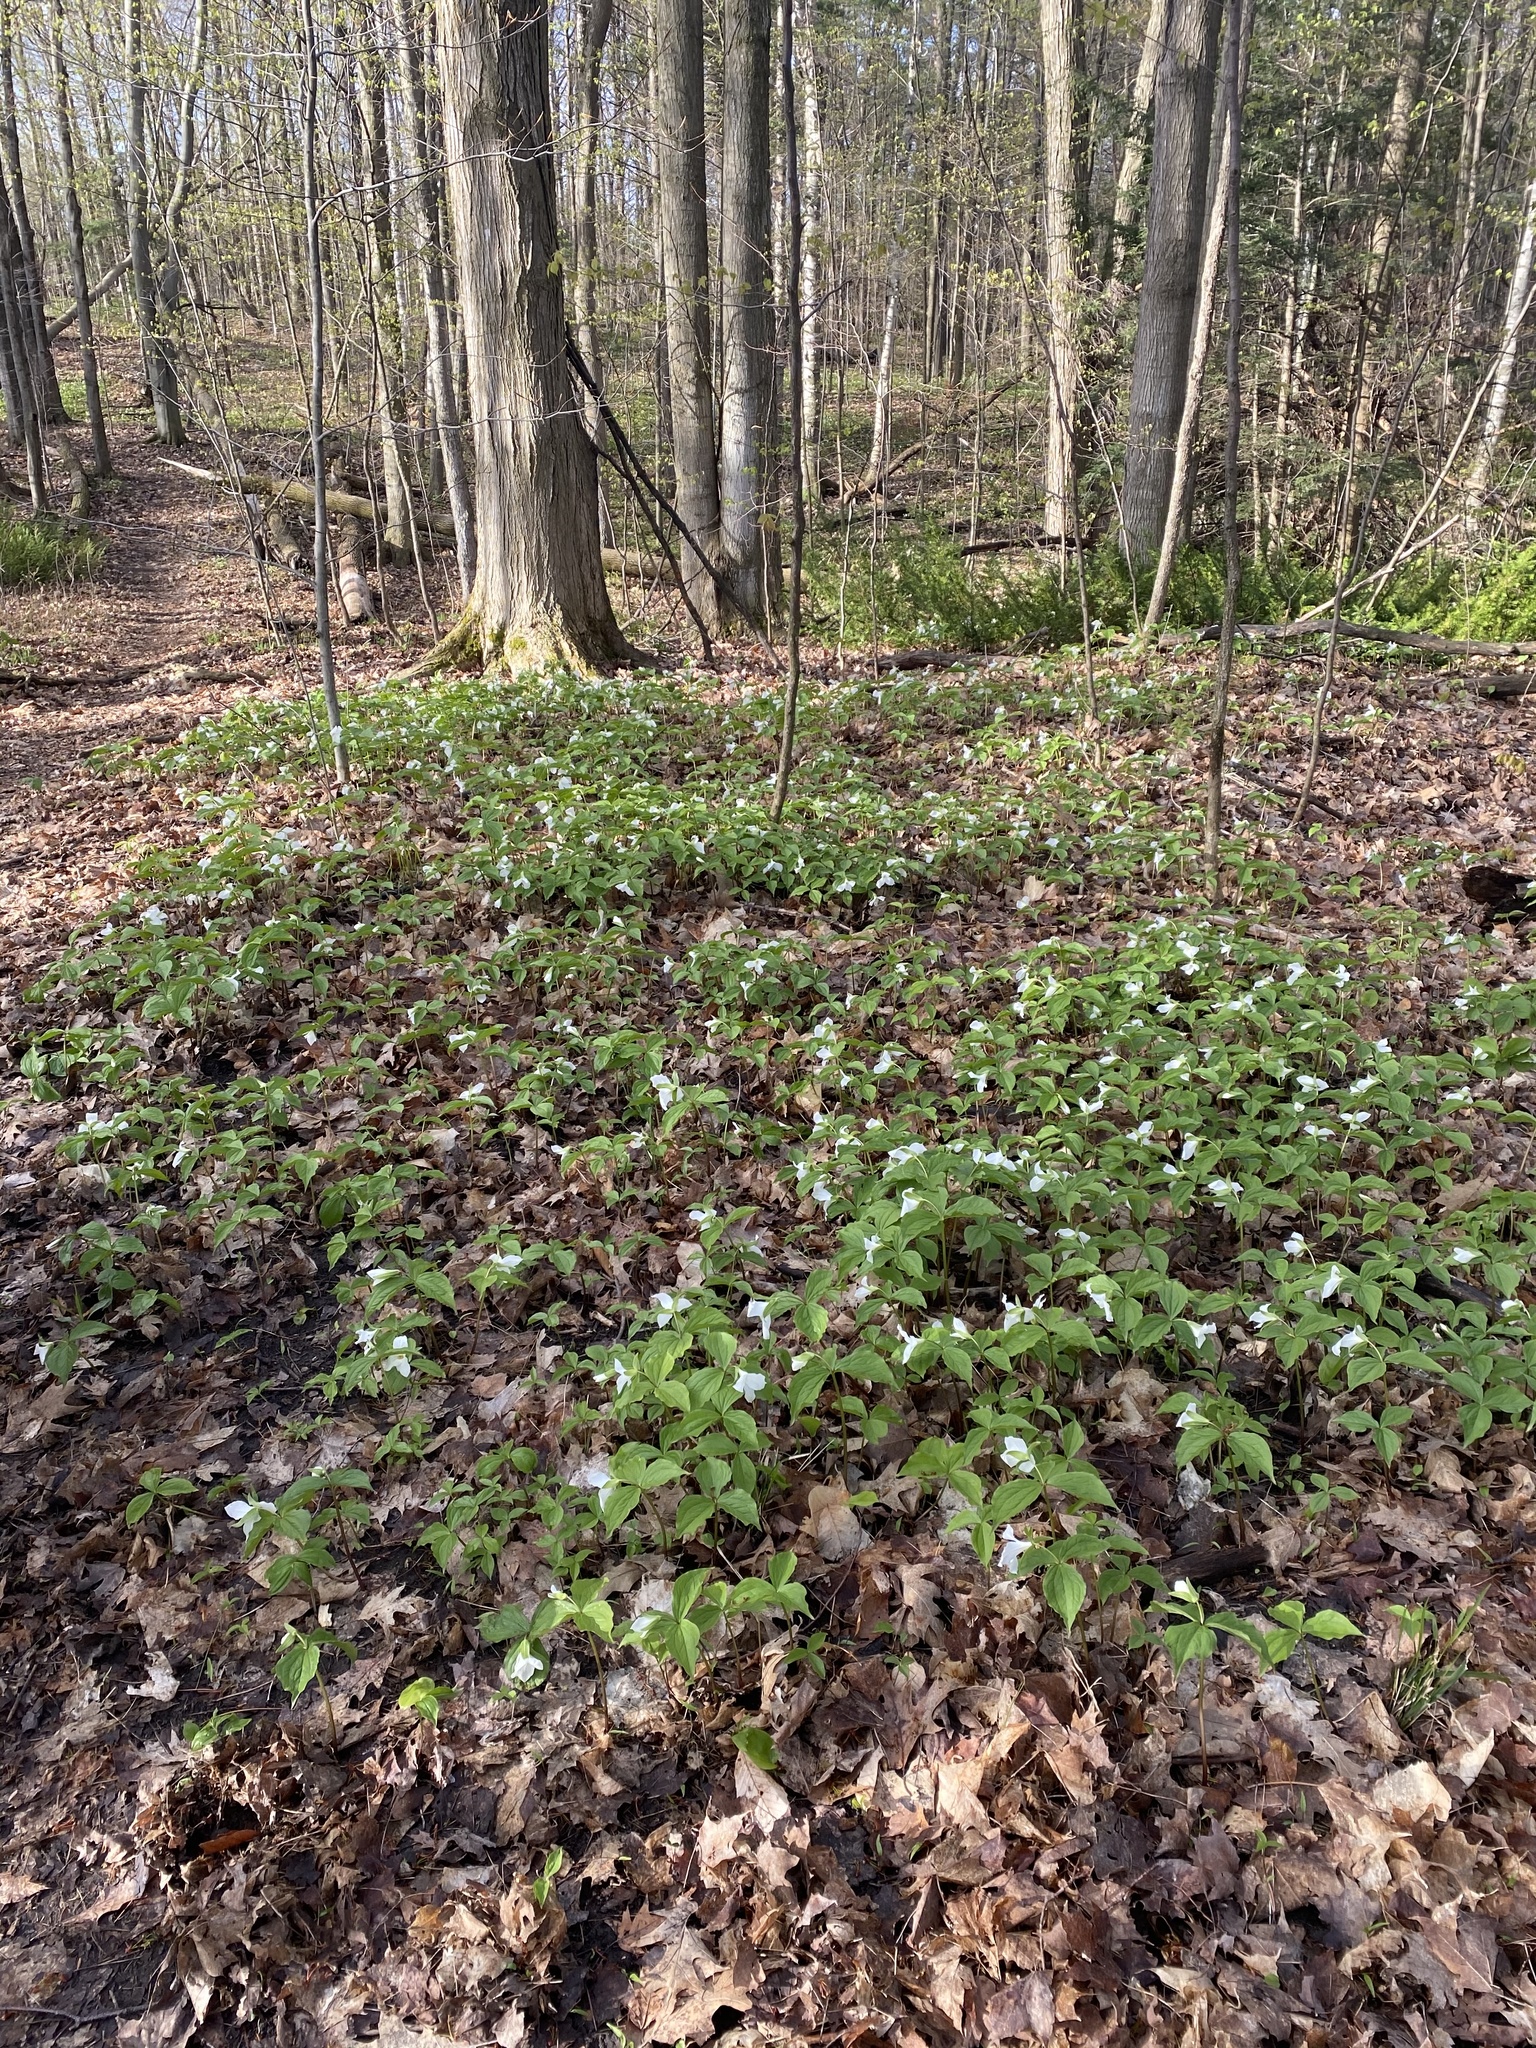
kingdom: Plantae
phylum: Tracheophyta
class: Liliopsida
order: Liliales
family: Melanthiaceae
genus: Trillium
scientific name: Trillium grandiflorum
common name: Great white trillium
